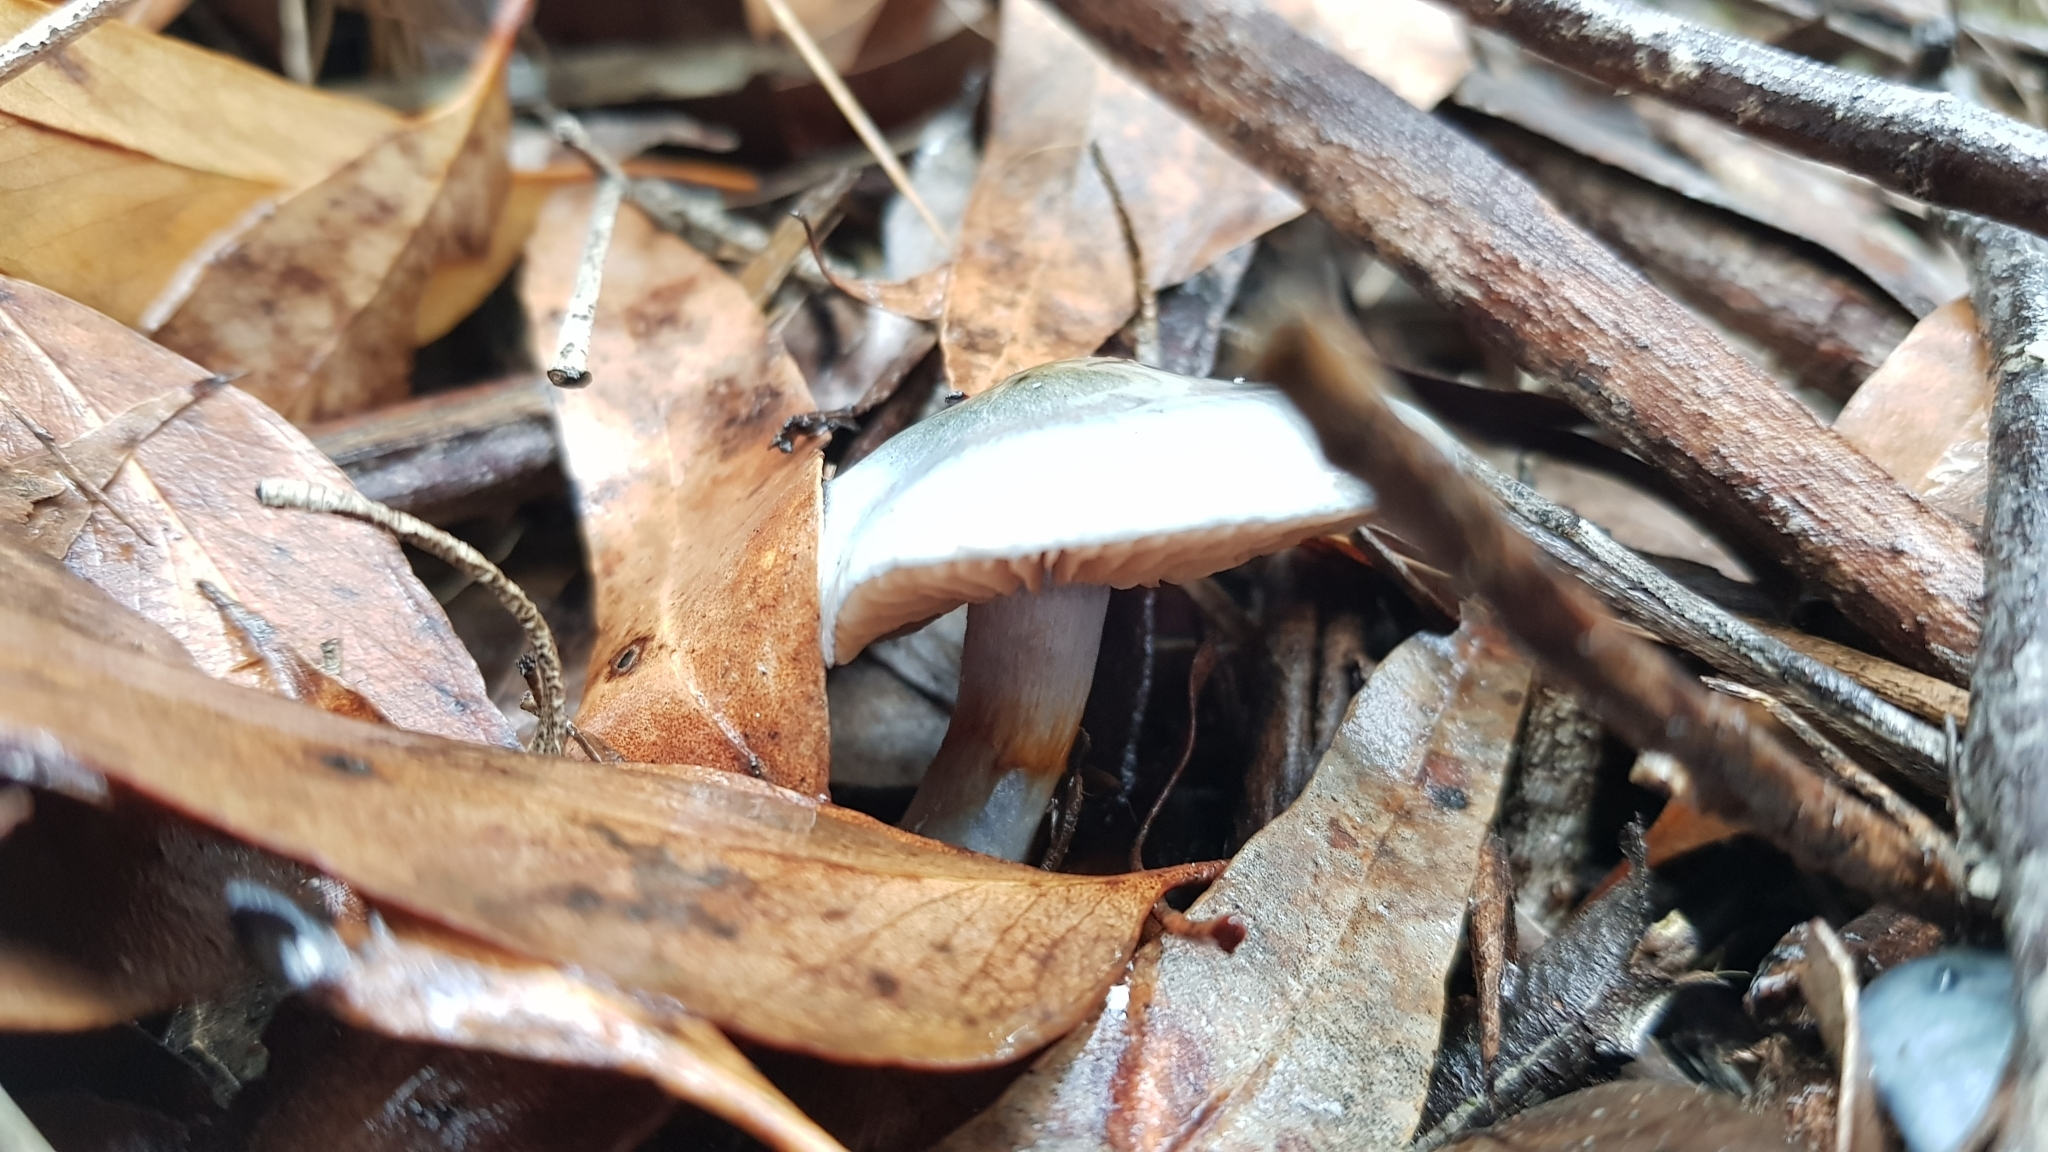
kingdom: Fungi
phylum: Basidiomycota
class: Agaricomycetes
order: Agaricales
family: Cortinariaceae
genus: Cortinarius
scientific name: Cortinarius rotundisporus
